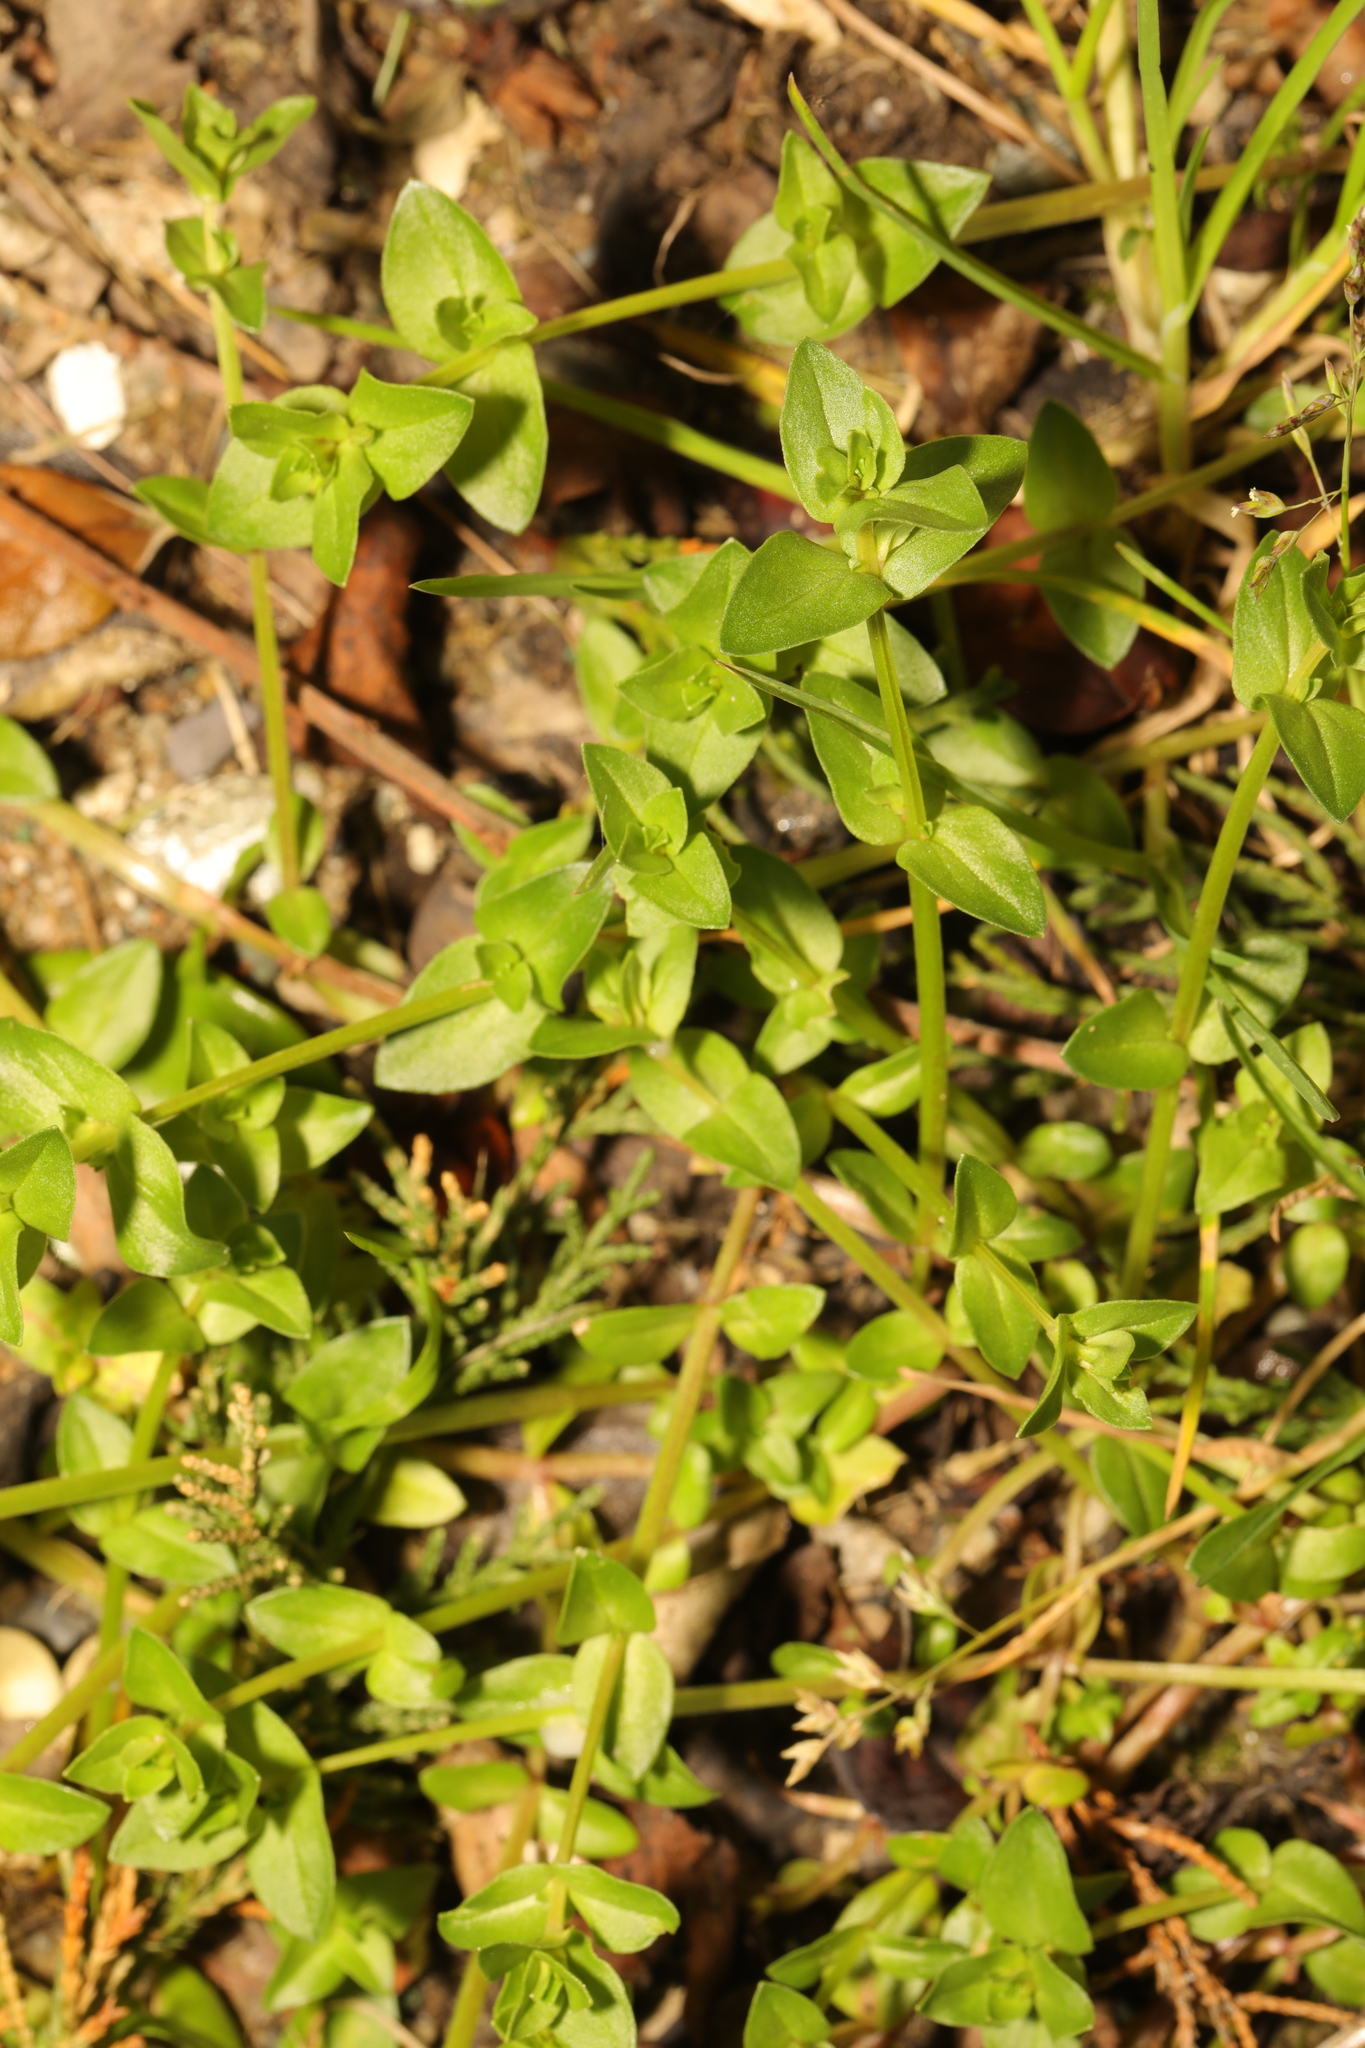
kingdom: Plantae
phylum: Tracheophyta
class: Magnoliopsida
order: Ericales
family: Primulaceae
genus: Lysimachia
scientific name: Lysimachia arvensis
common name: Scarlet pimpernel
